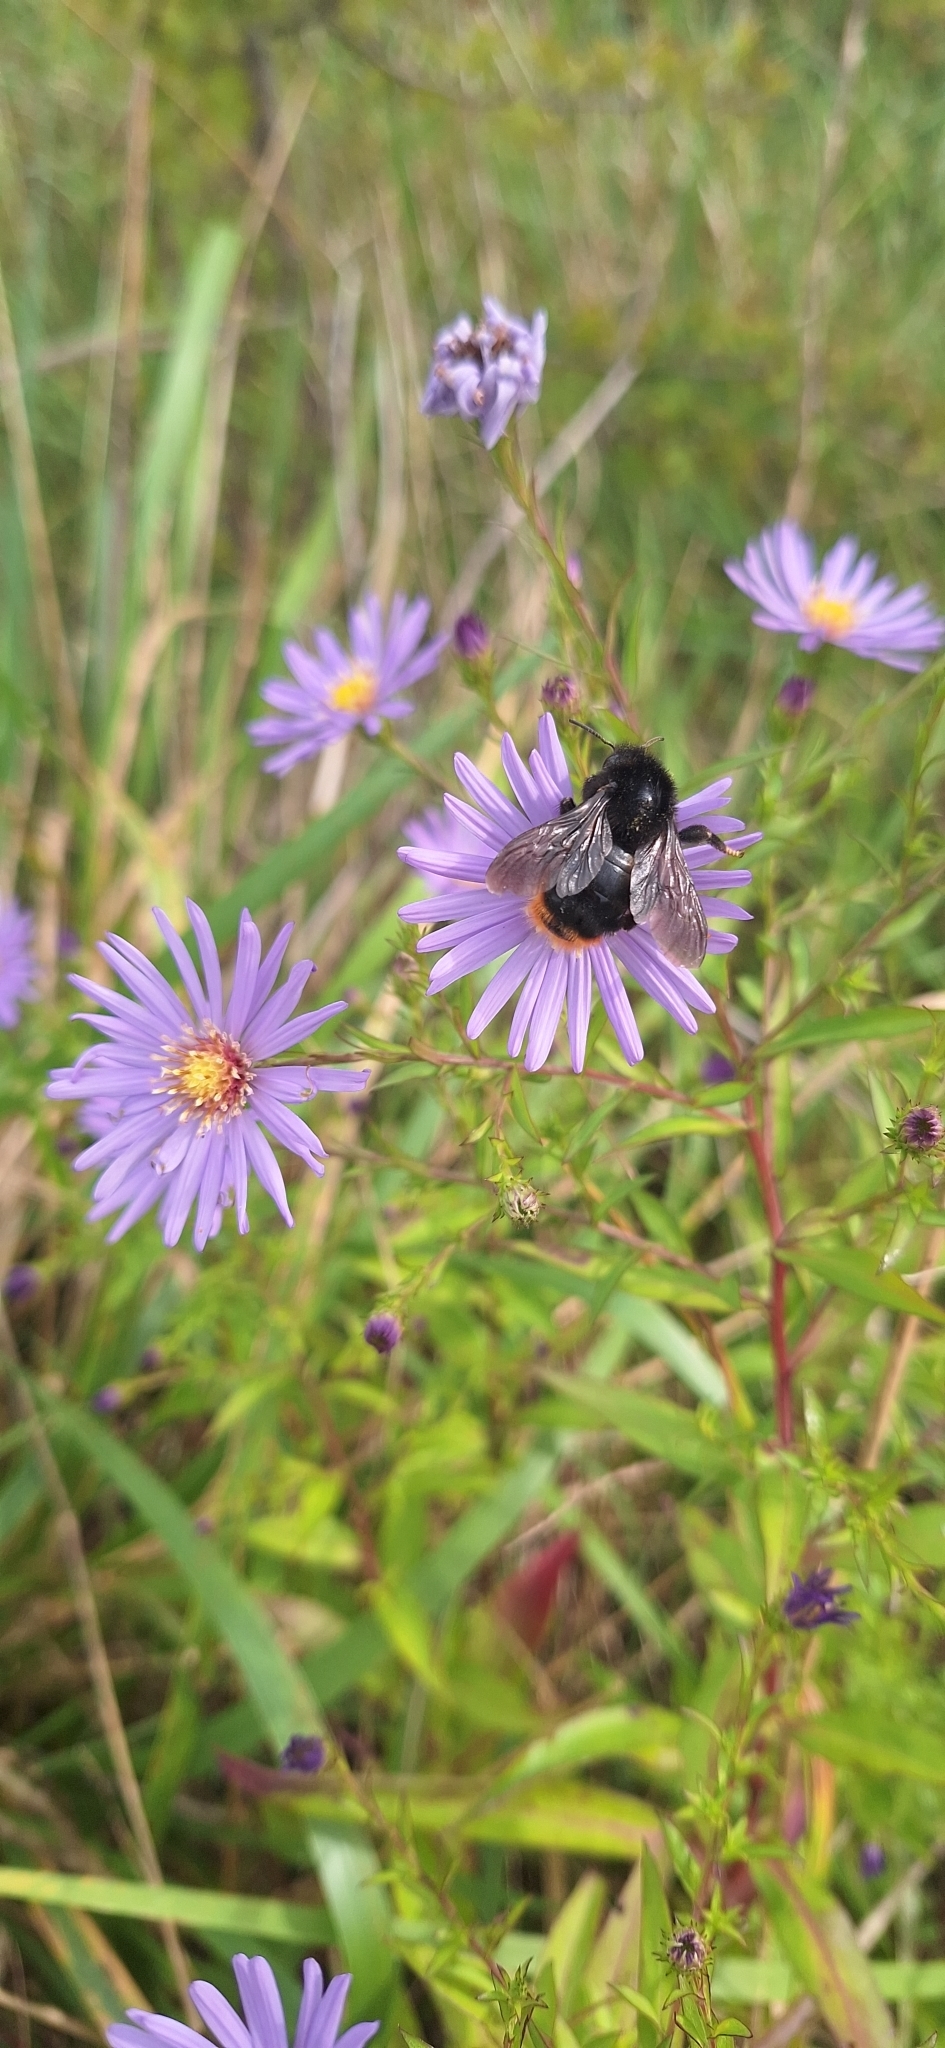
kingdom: Animalia
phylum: Arthropoda
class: Insecta
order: Hymenoptera
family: Apidae
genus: Bombus
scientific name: Bombus rupestris
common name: Hill cuckoo-bee
